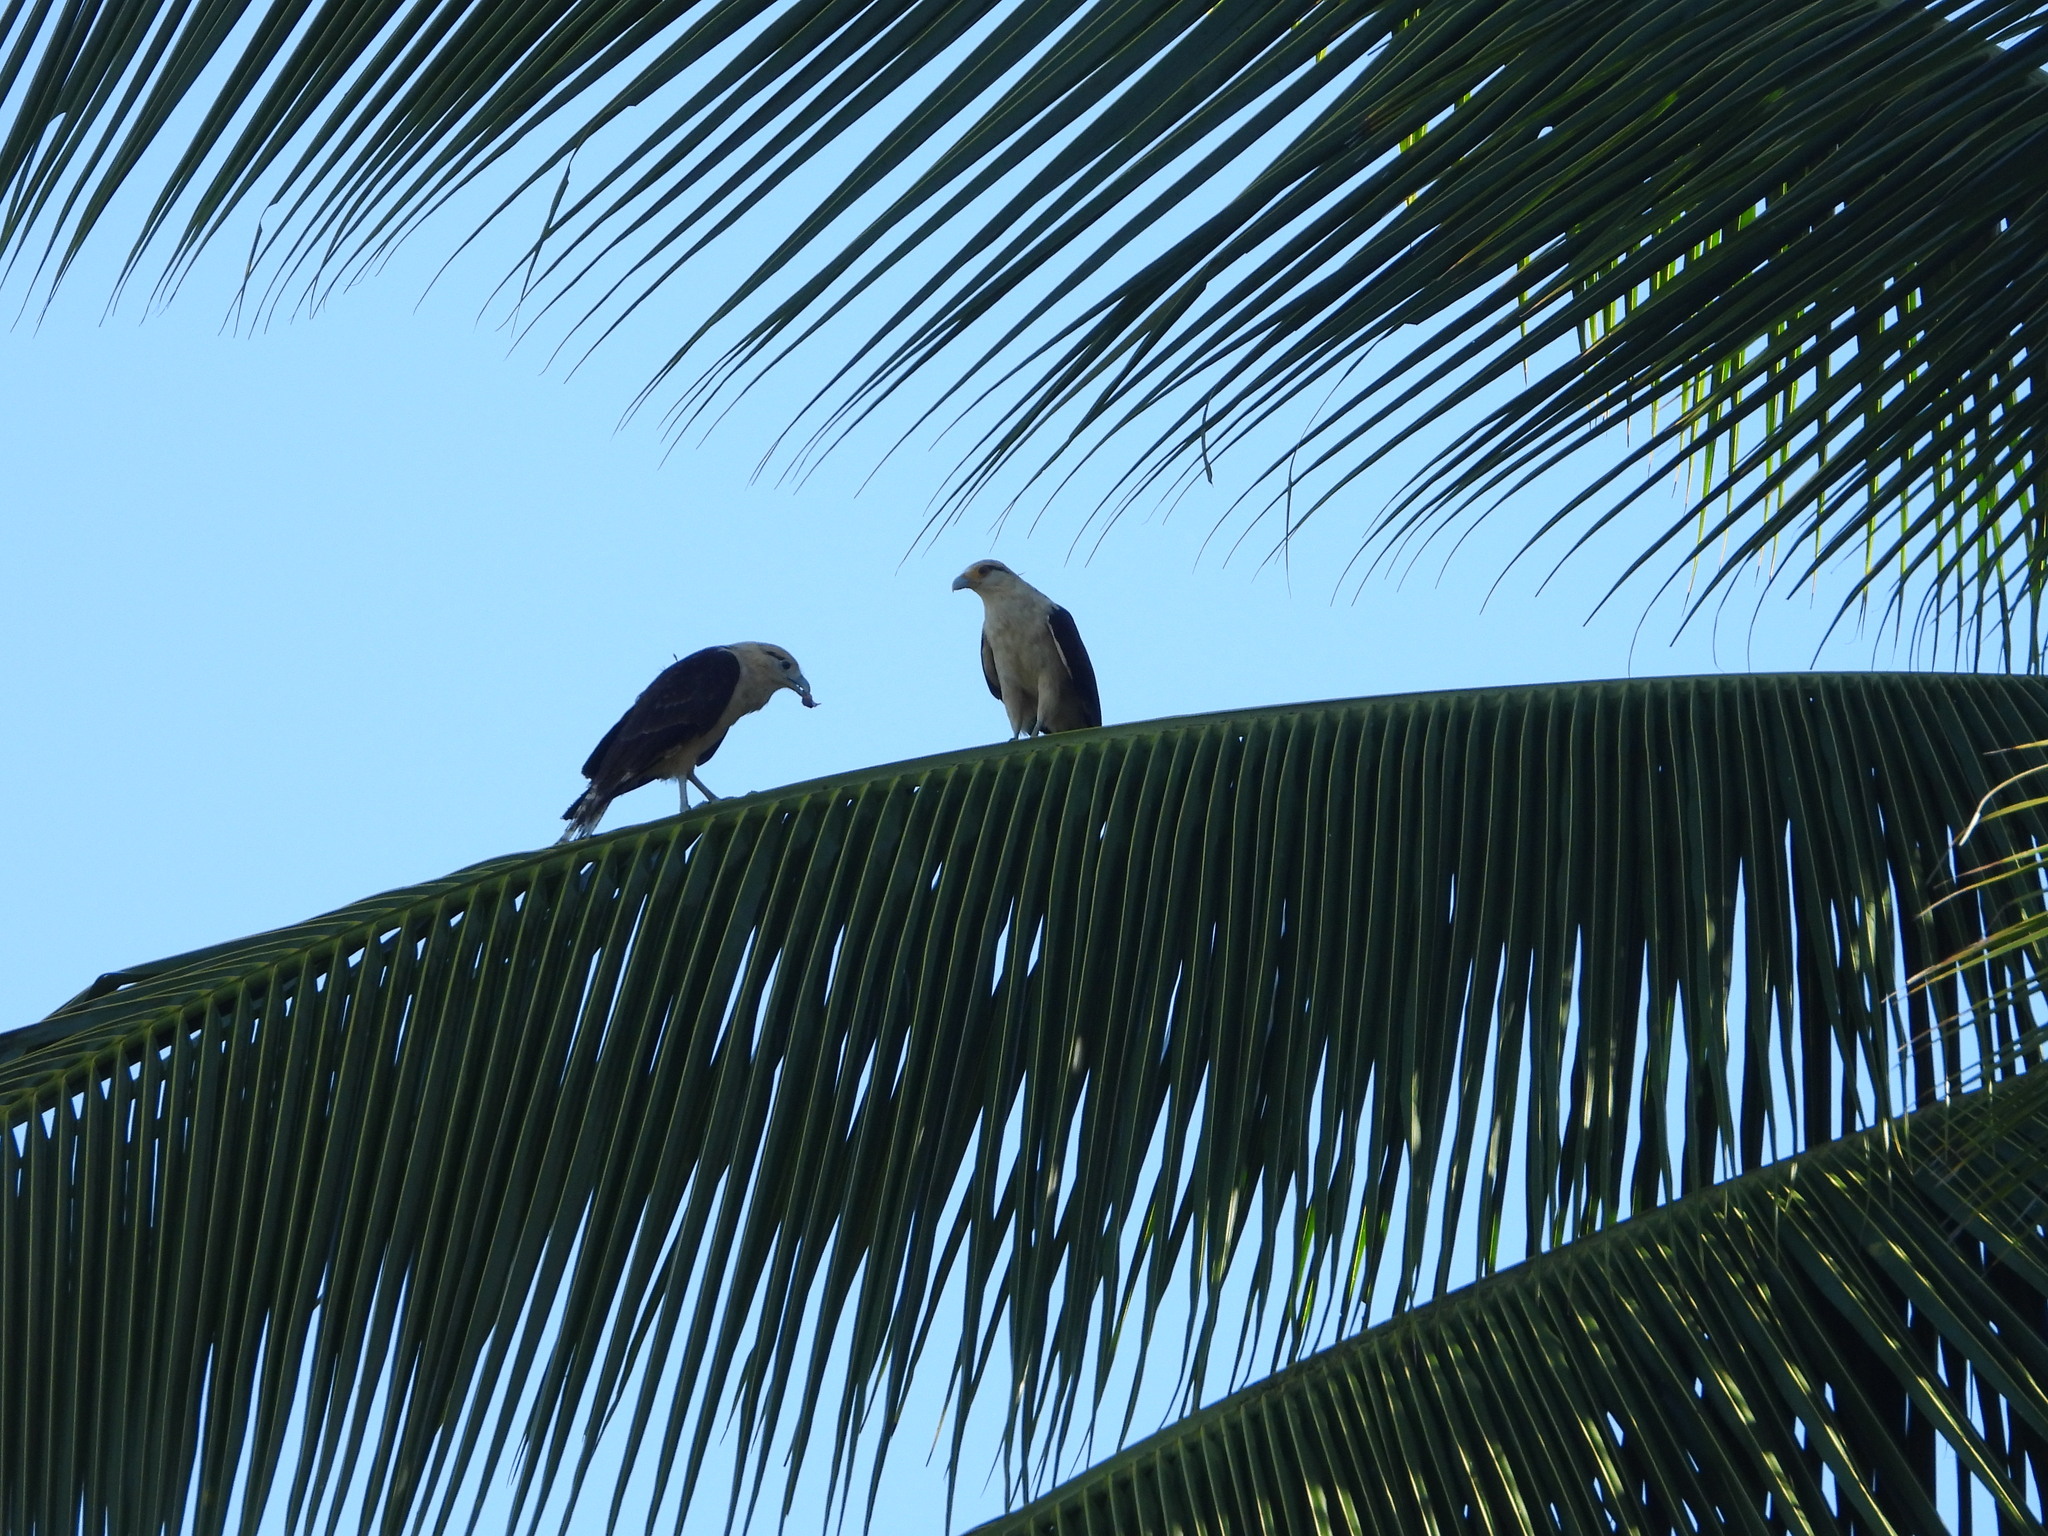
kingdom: Animalia
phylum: Chordata
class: Aves
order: Falconiformes
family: Falconidae
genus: Daptrius
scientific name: Daptrius
